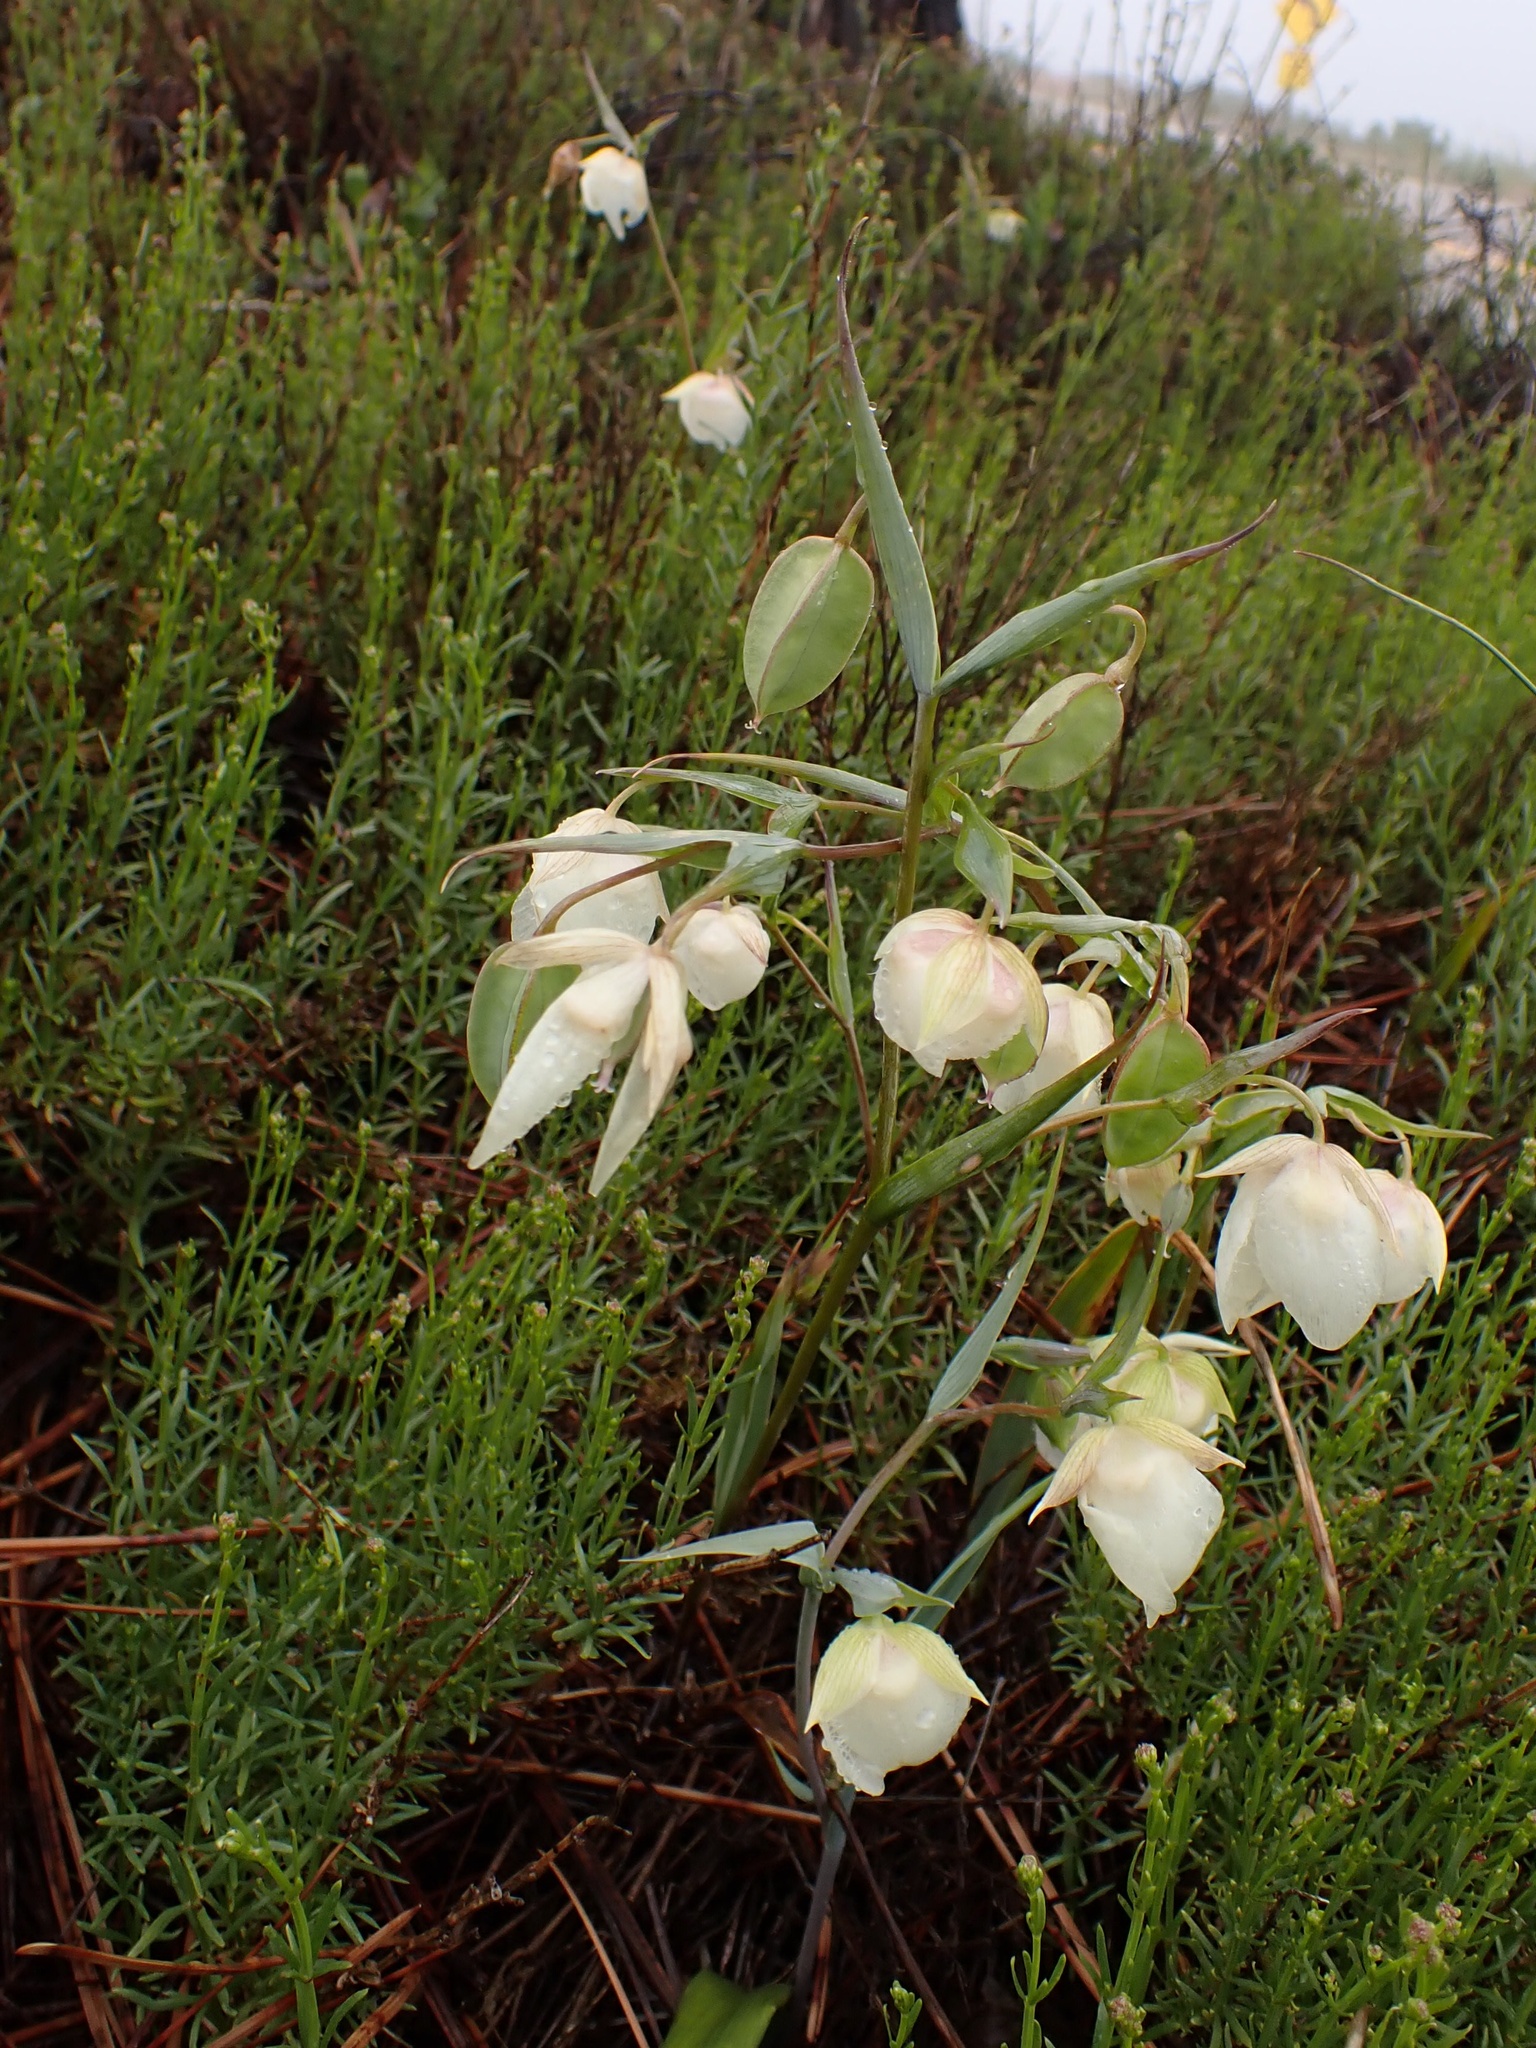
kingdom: Plantae
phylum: Tracheophyta
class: Liliopsida
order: Liliales
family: Liliaceae
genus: Calochortus
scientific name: Calochortus albus
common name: Fairy-lantern
